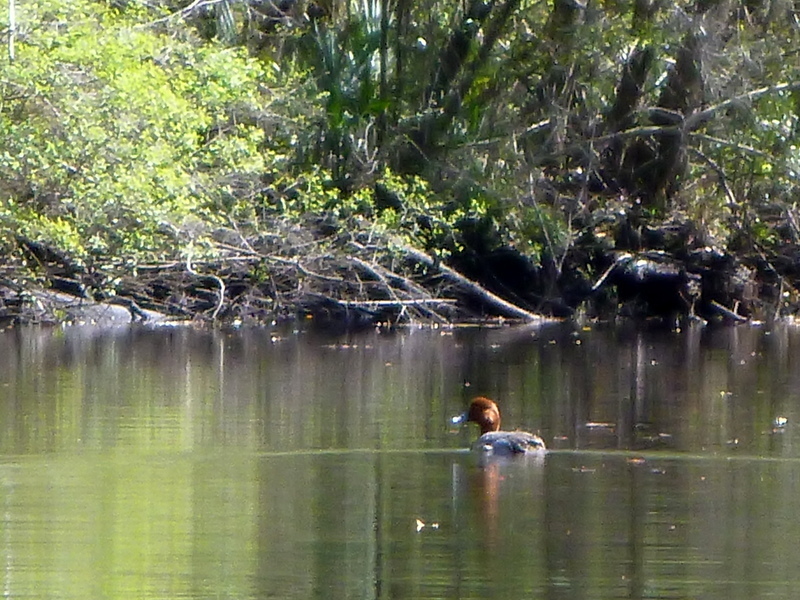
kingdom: Animalia
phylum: Chordata
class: Aves
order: Anseriformes
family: Anatidae
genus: Aythya
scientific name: Aythya americana
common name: Redhead
